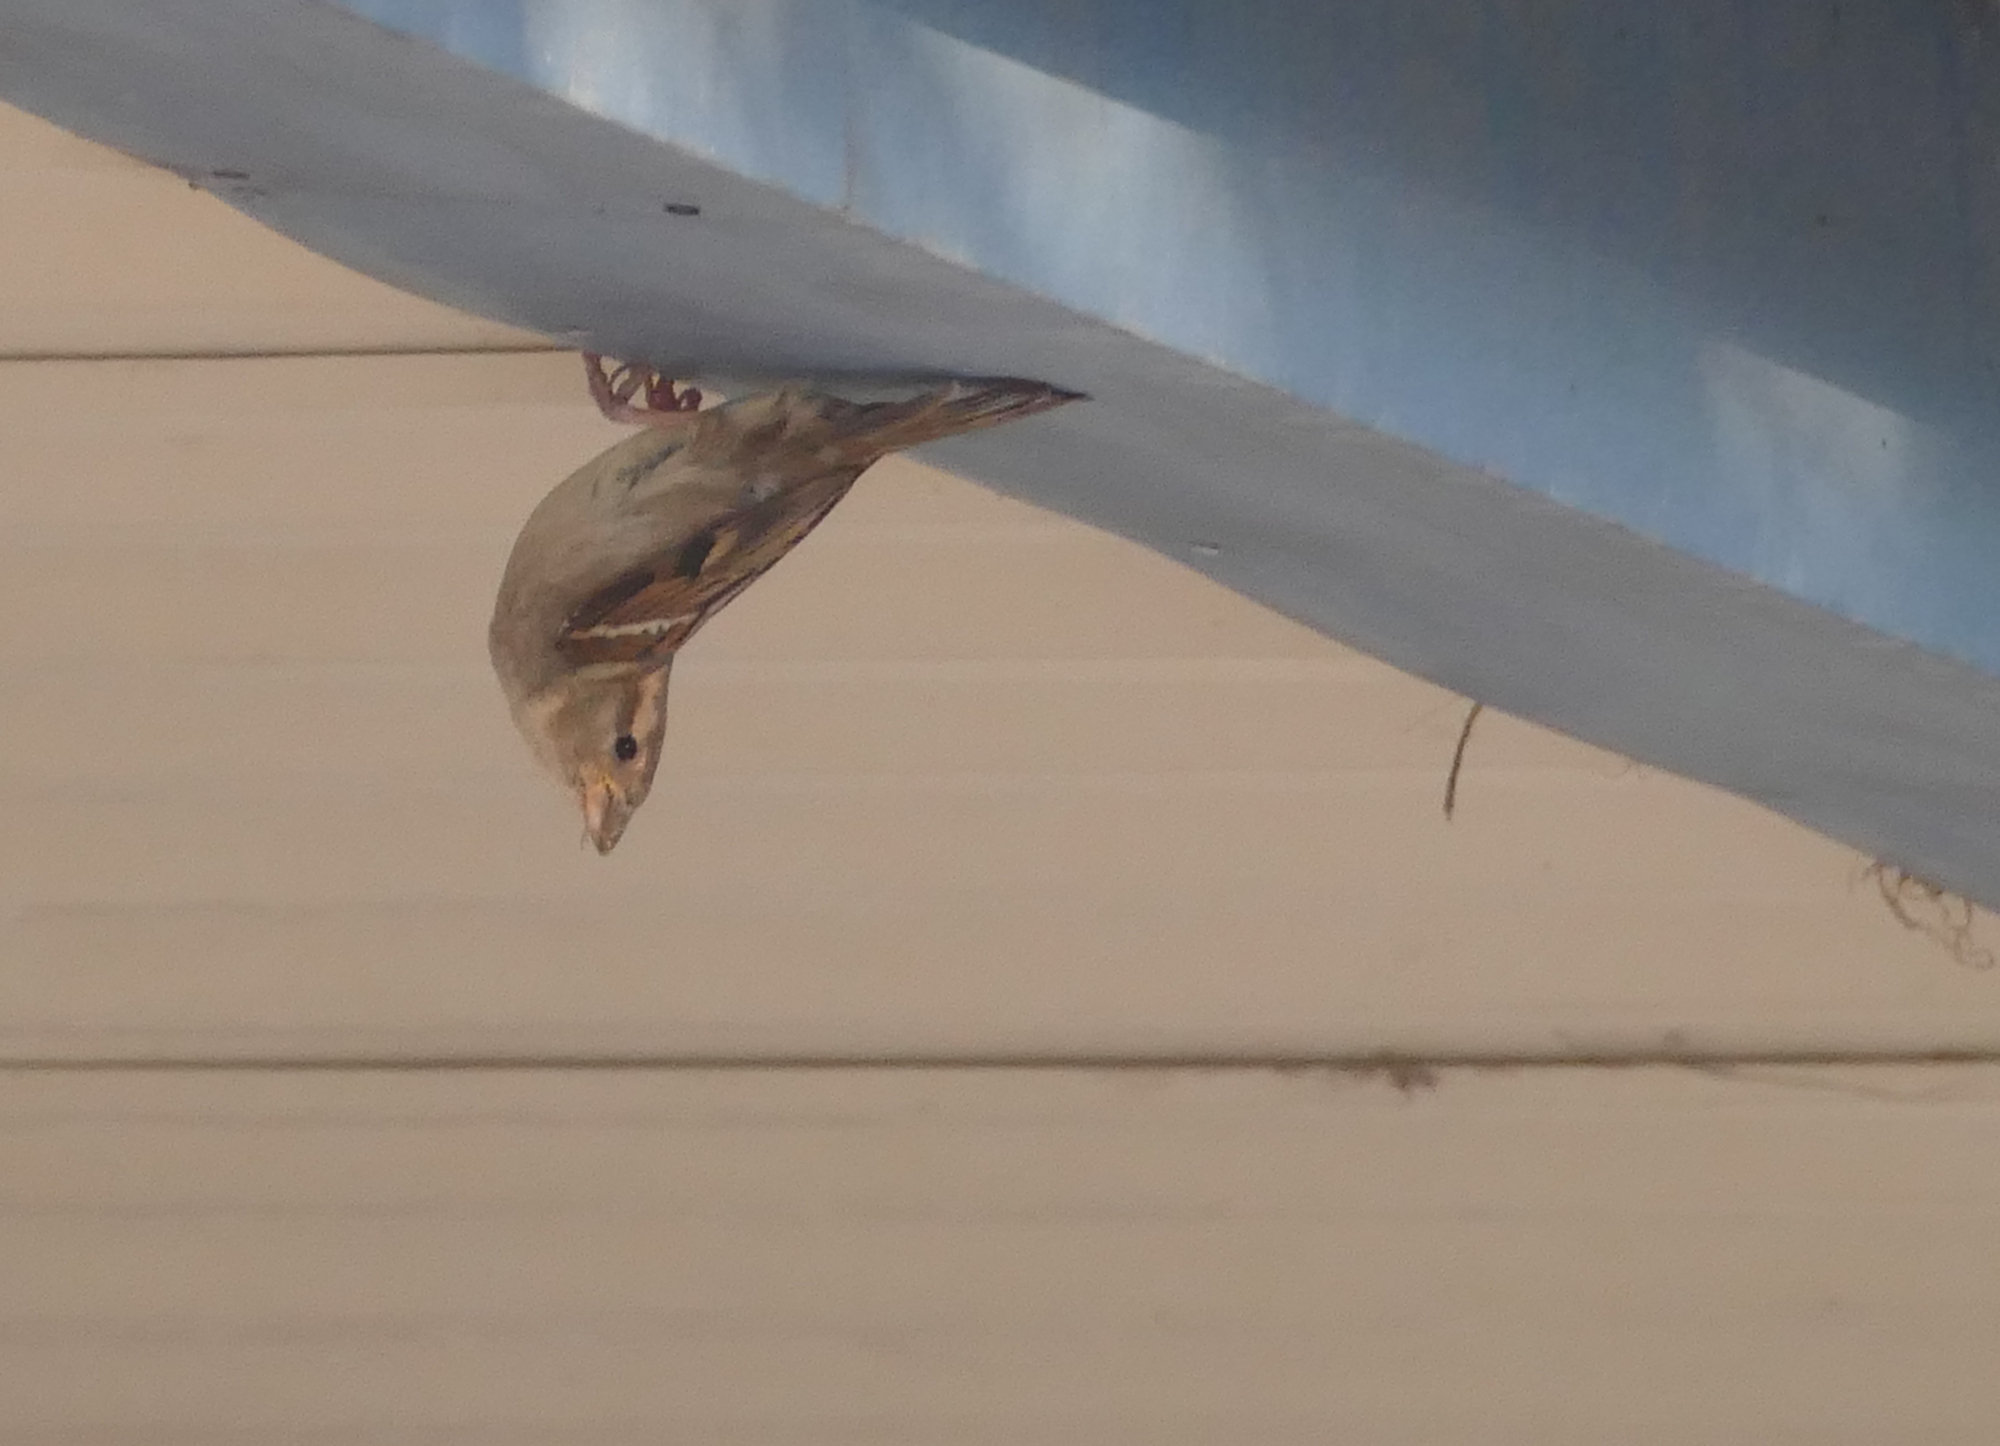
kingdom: Animalia
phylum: Chordata
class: Aves
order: Passeriformes
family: Passeridae
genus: Passer
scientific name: Passer domesticus
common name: House sparrow
